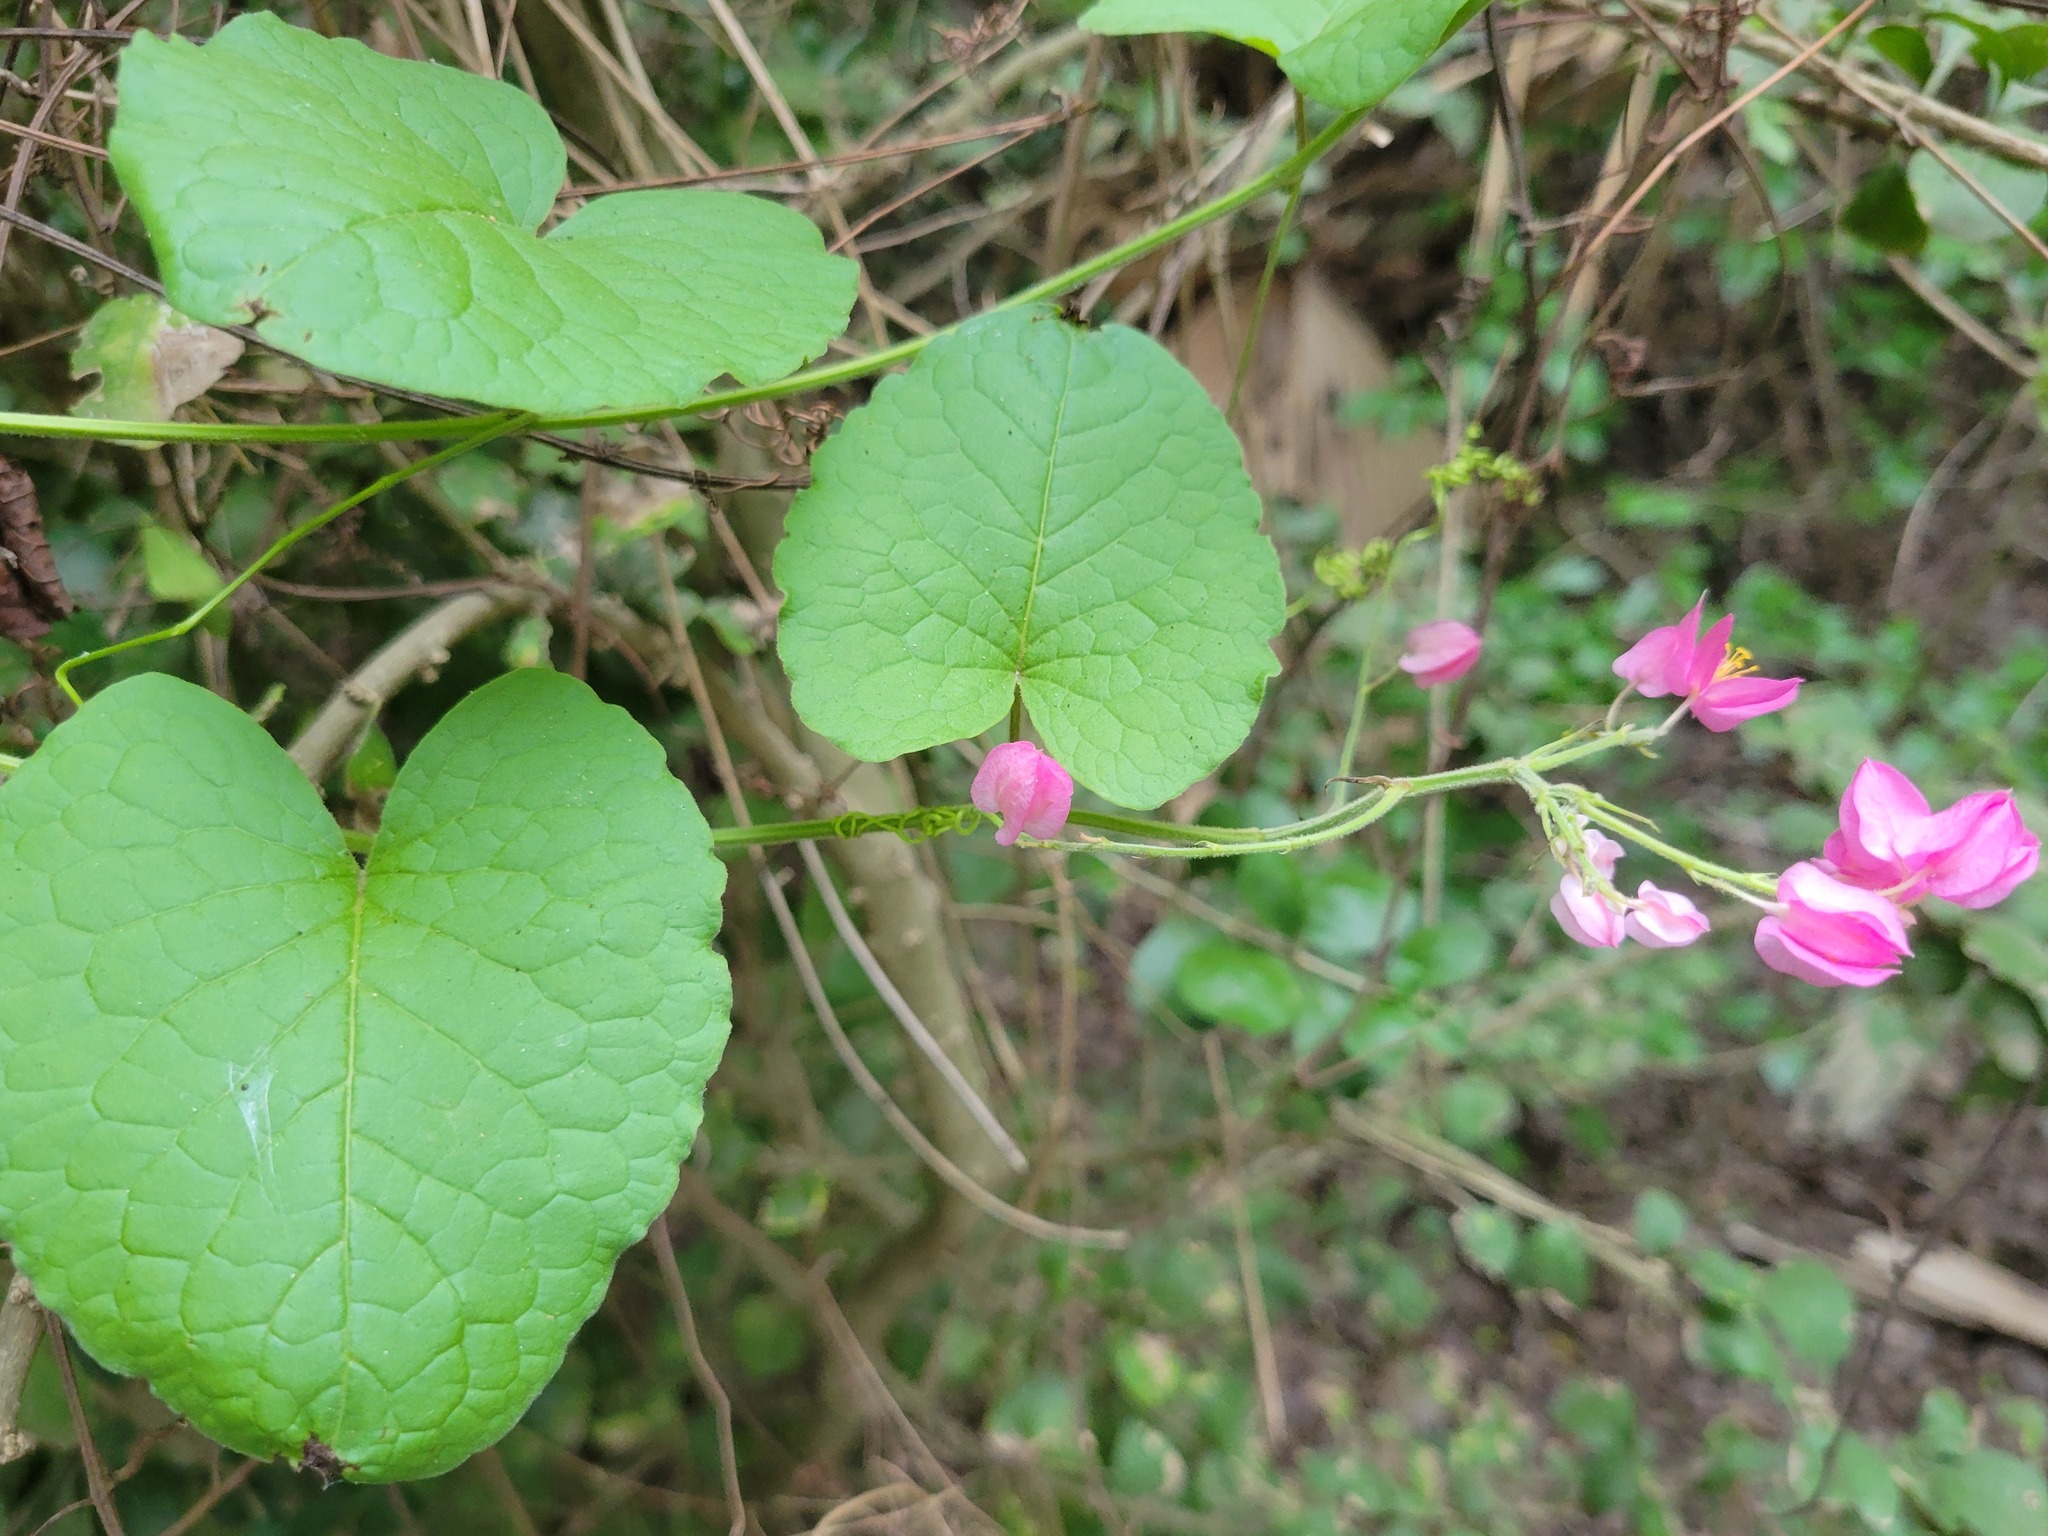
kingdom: Plantae
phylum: Tracheophyta
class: Magnoliopsida
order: Caryophyllales
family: Polygonaceae
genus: Antigonon
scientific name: Antigonon leptopus
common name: Coral vine
